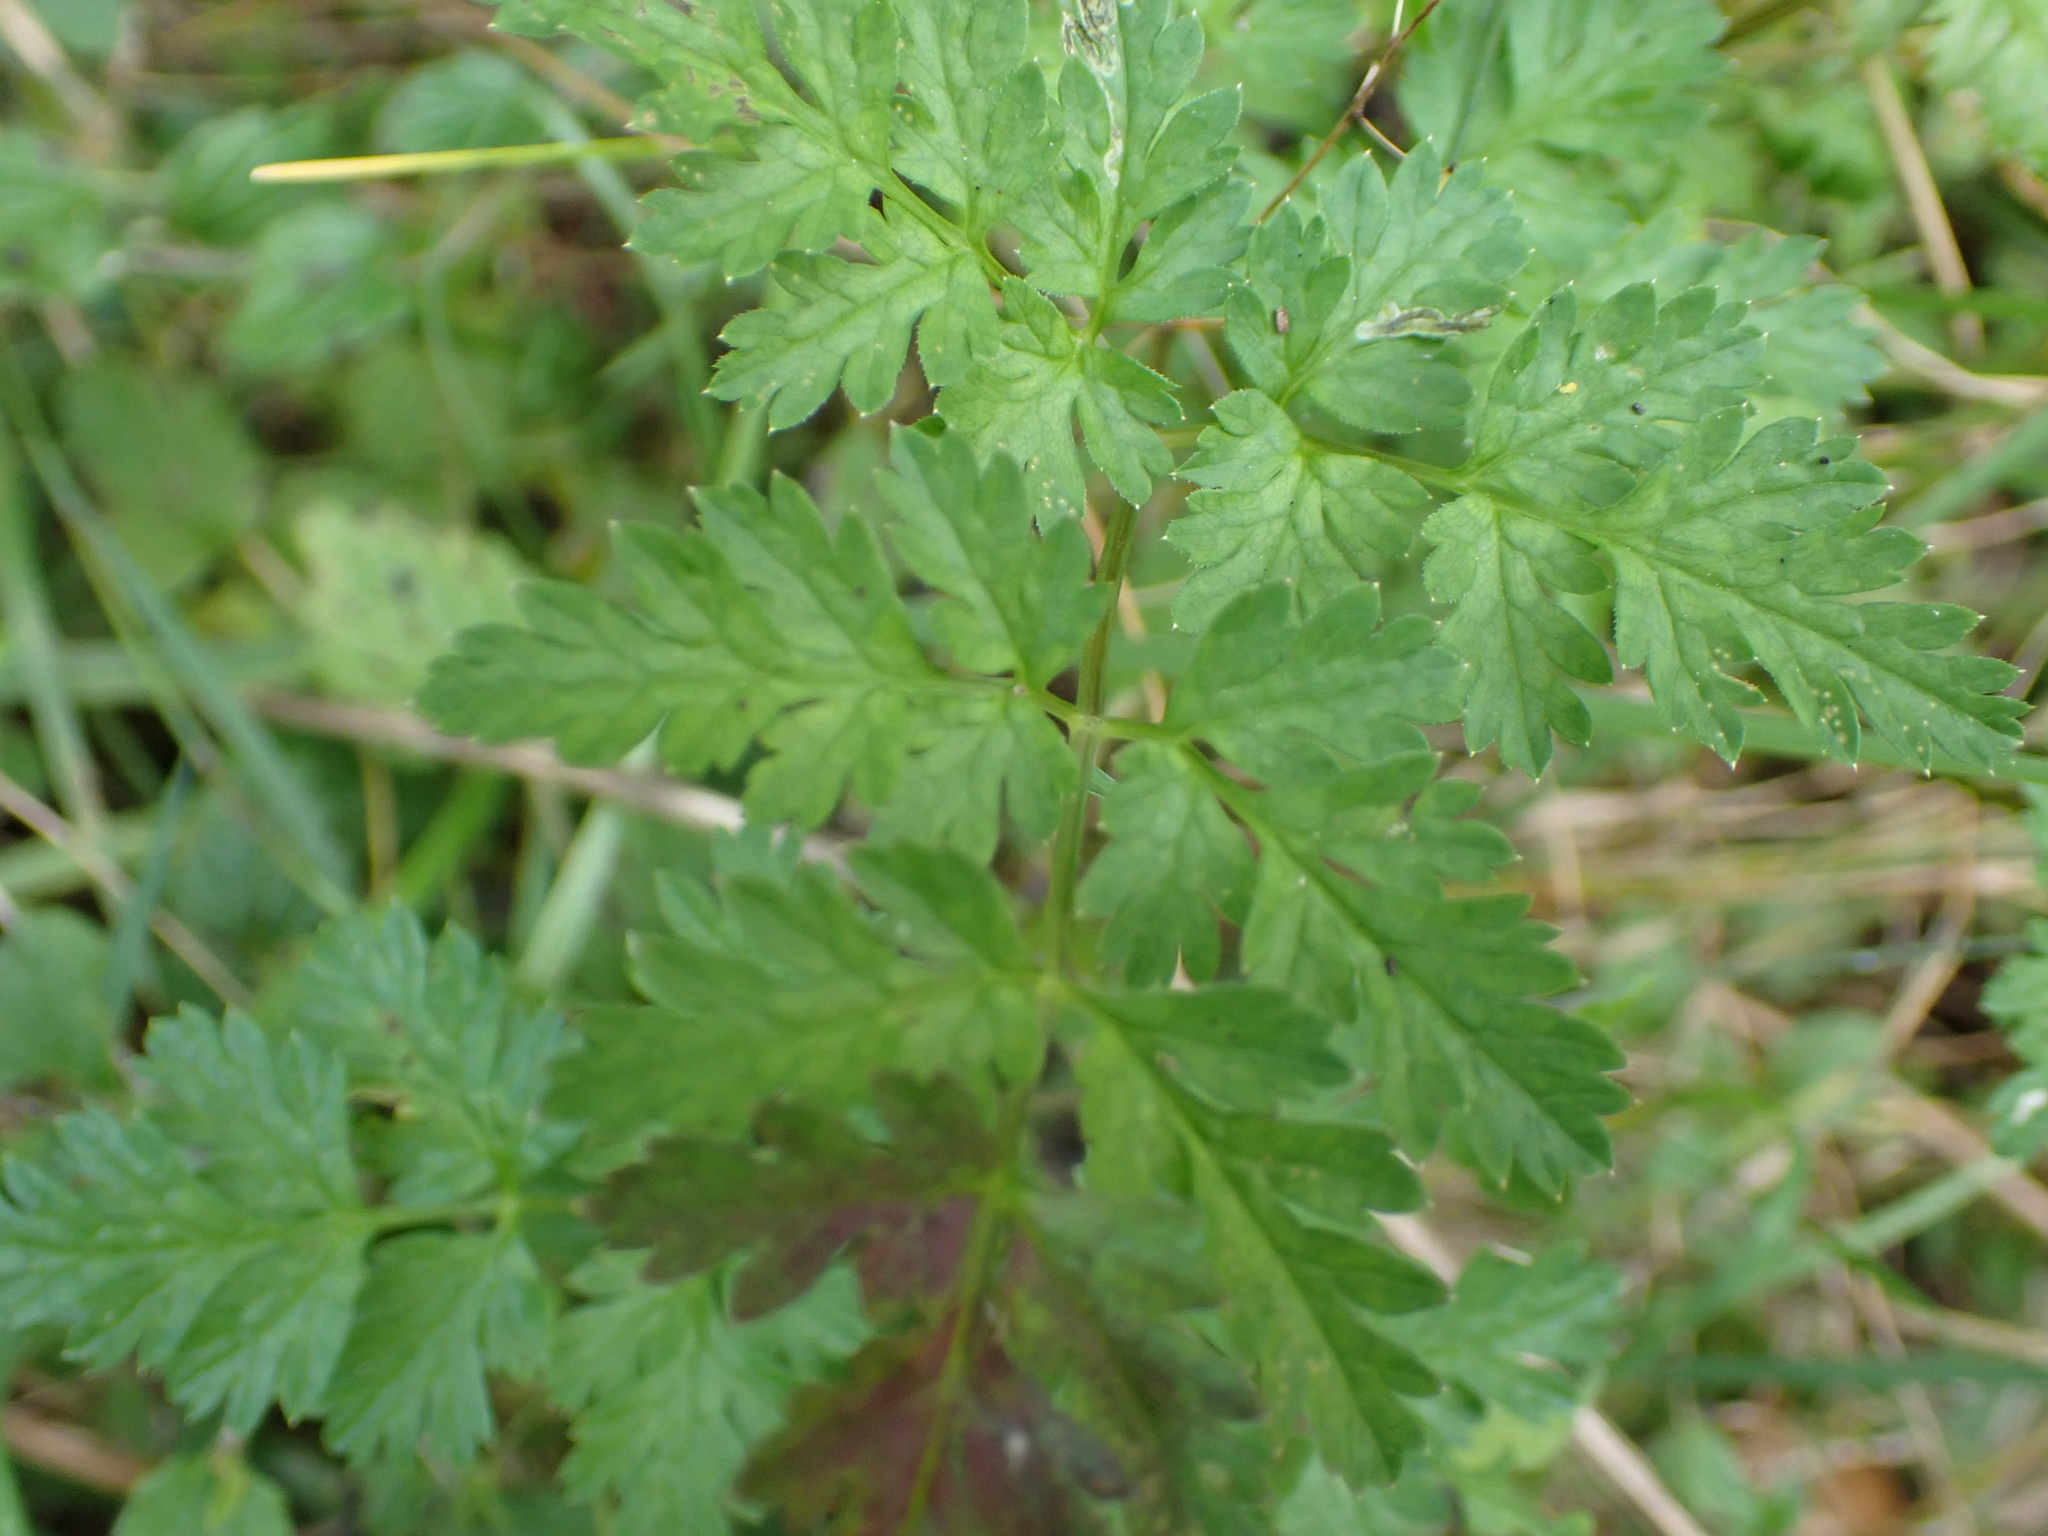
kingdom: Plantae
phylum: Tracheophyta
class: Magnoliopsida
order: Apiales
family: Apiaceae
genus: Anthriscus
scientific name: Anthriscus sylvestris
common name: Cow parsley
